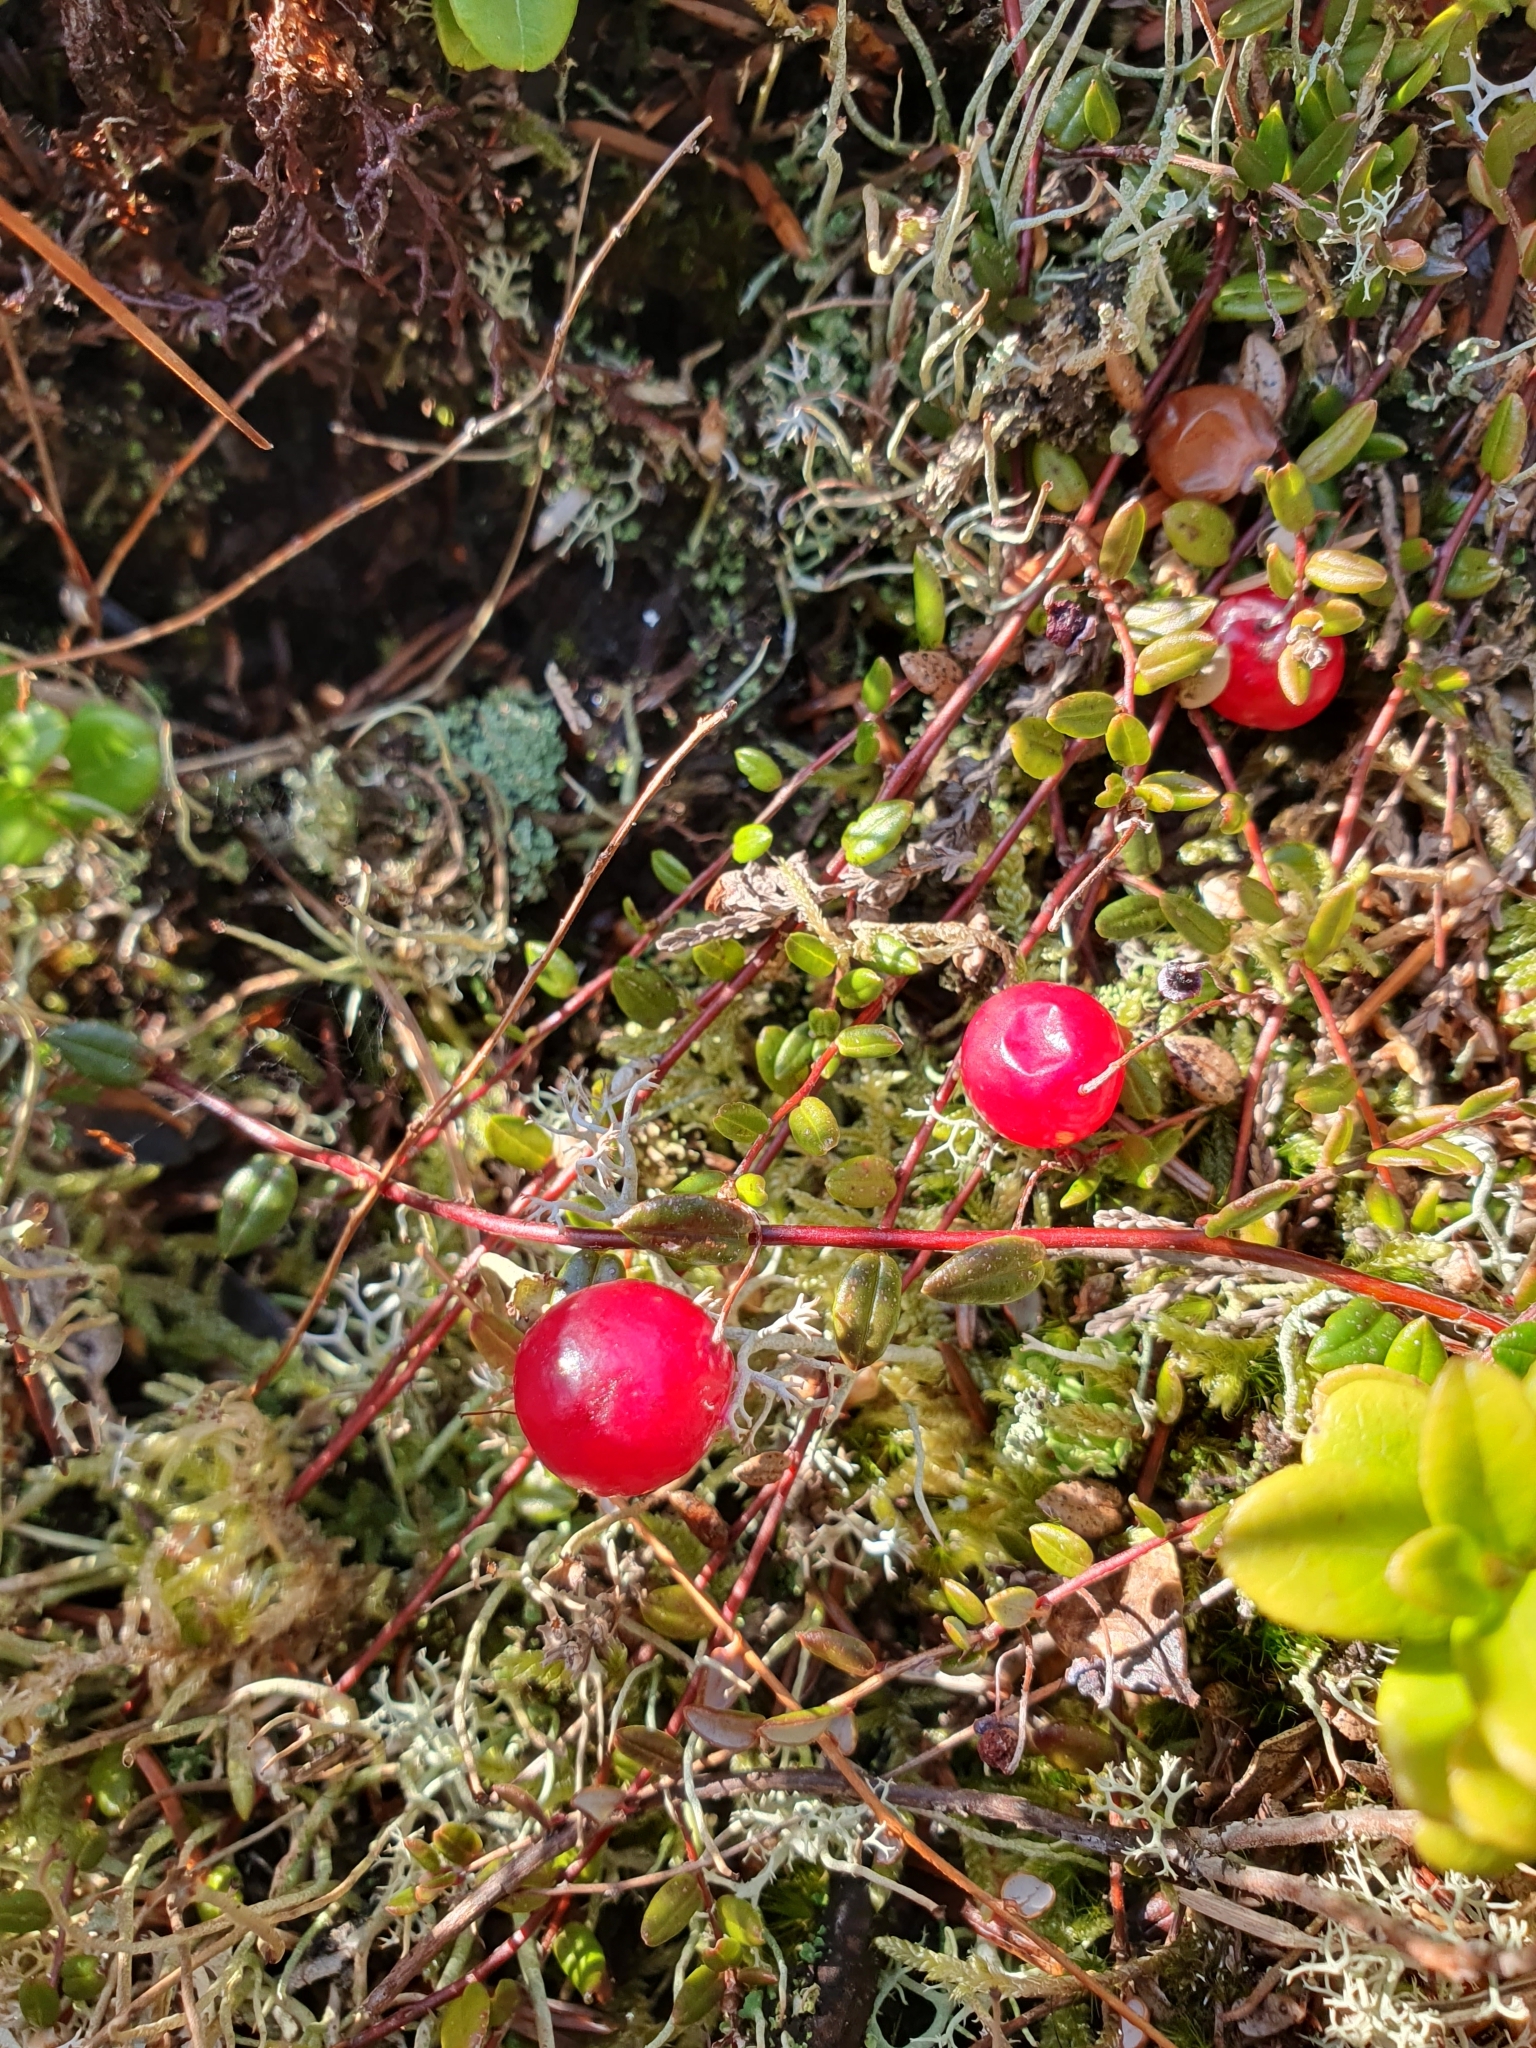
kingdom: Plantae
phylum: Tracheophyta
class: Magnoliopsida
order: Ericales
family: Ericaceae
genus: Vaccinium
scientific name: Vaccinium oxycoccos
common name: Cranberry
